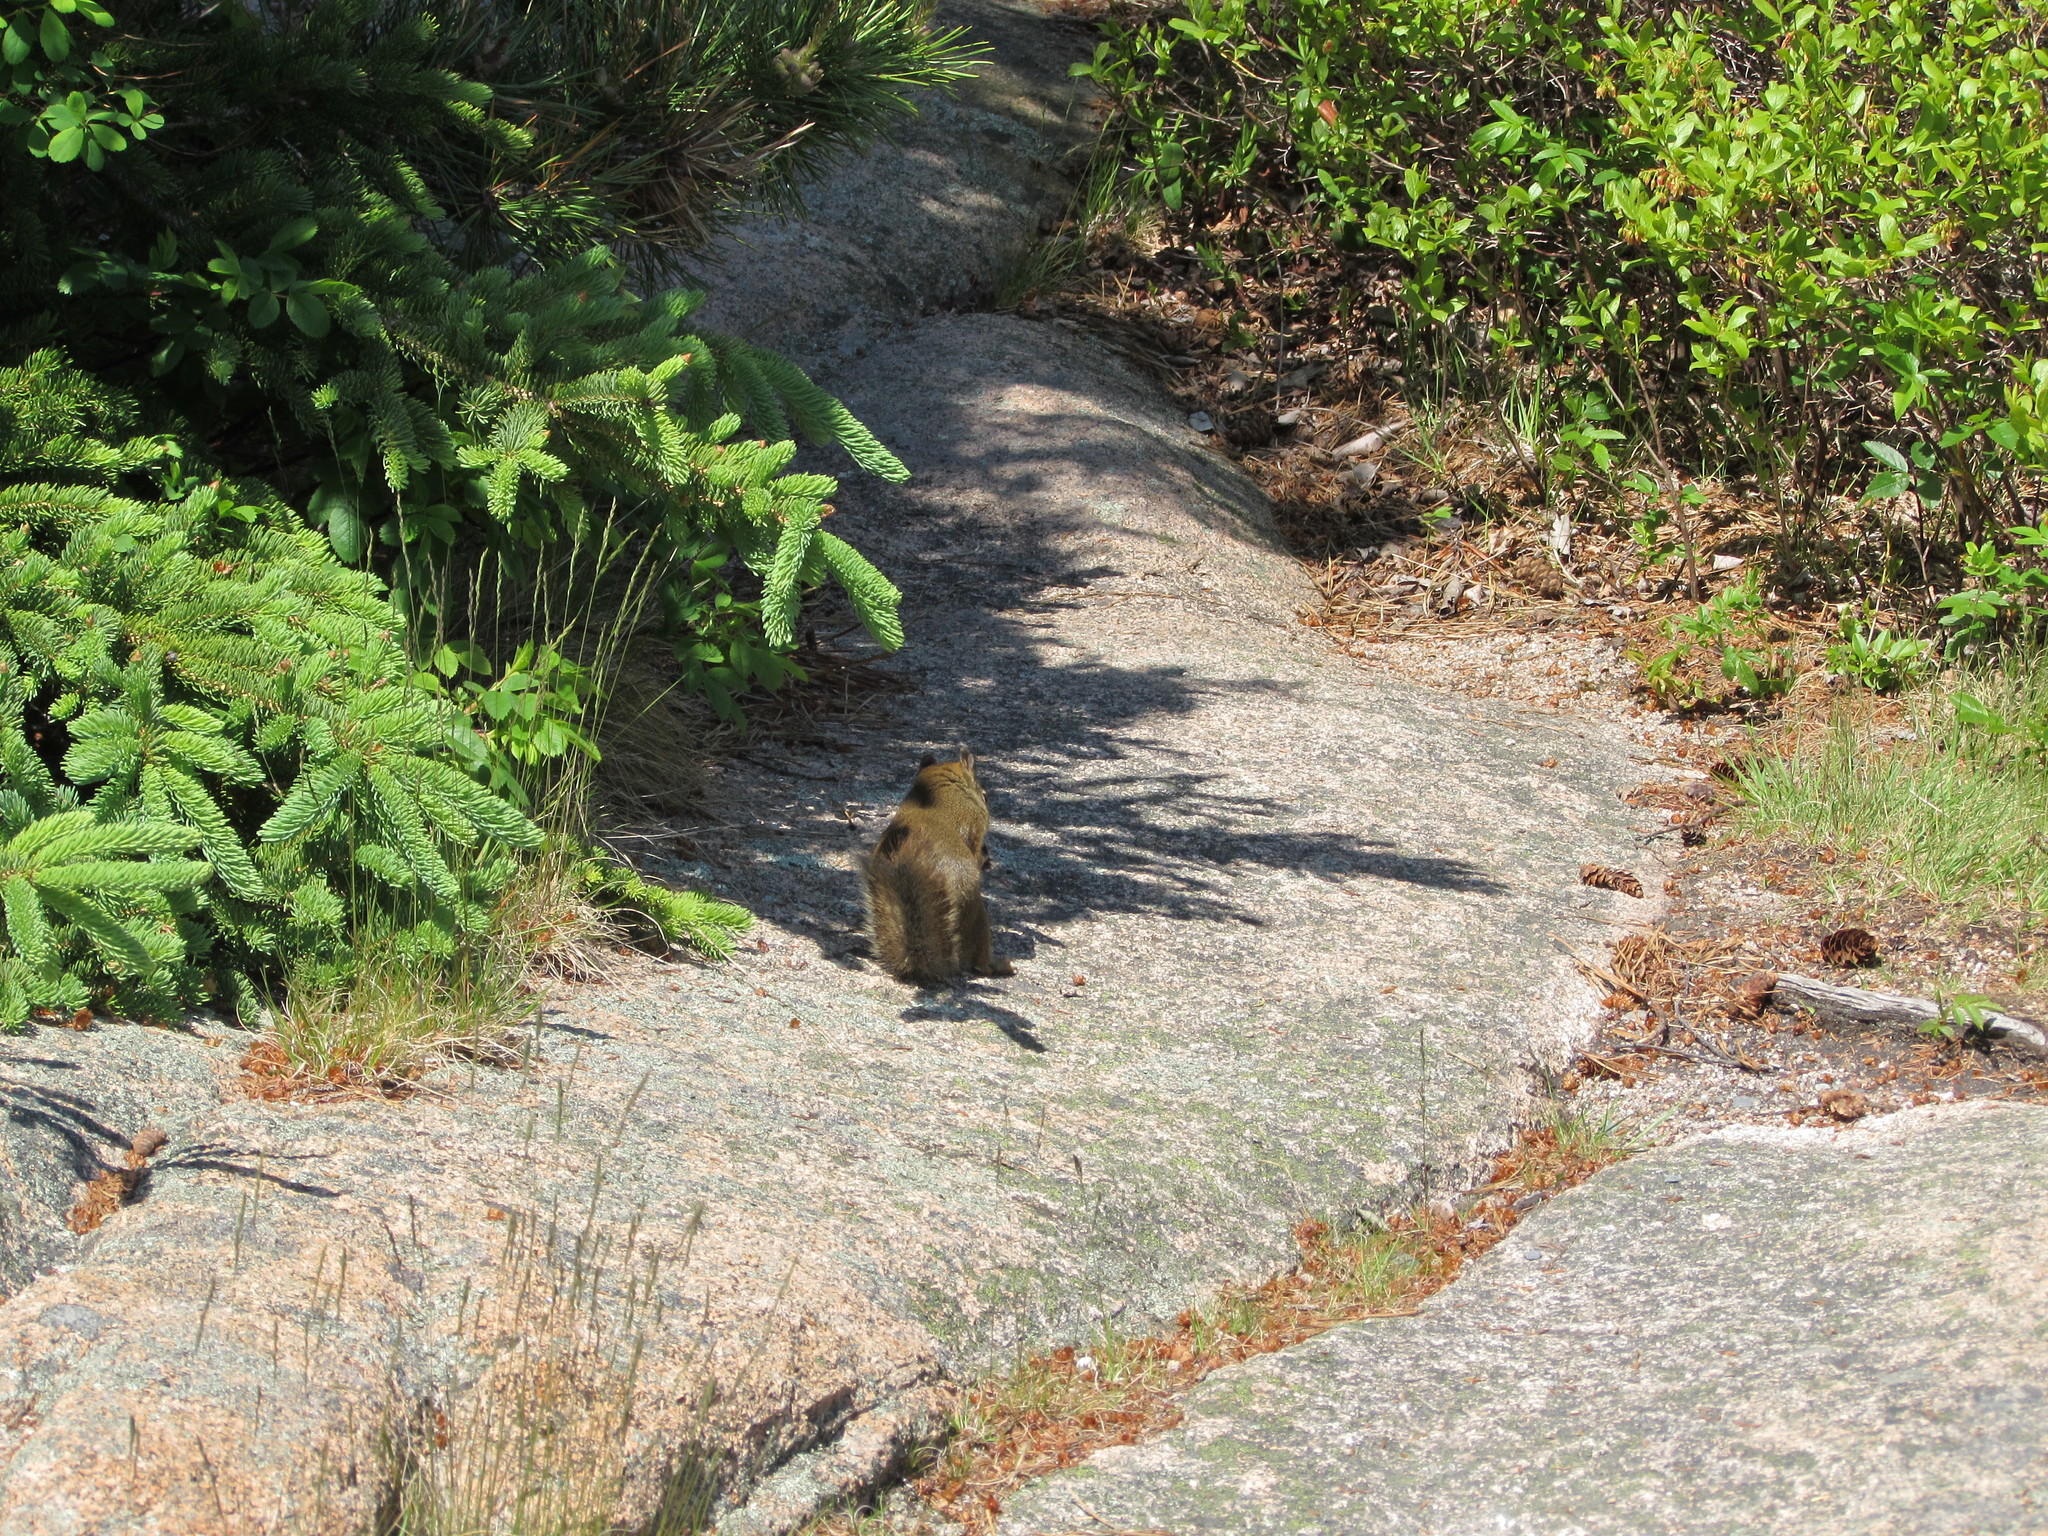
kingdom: Animalia
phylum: Chordata
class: Mammalia
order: Rodentia
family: Sciuridae
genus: Tamiasciurus
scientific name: Tamiasciurus hudsonicus
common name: Red squirrel
